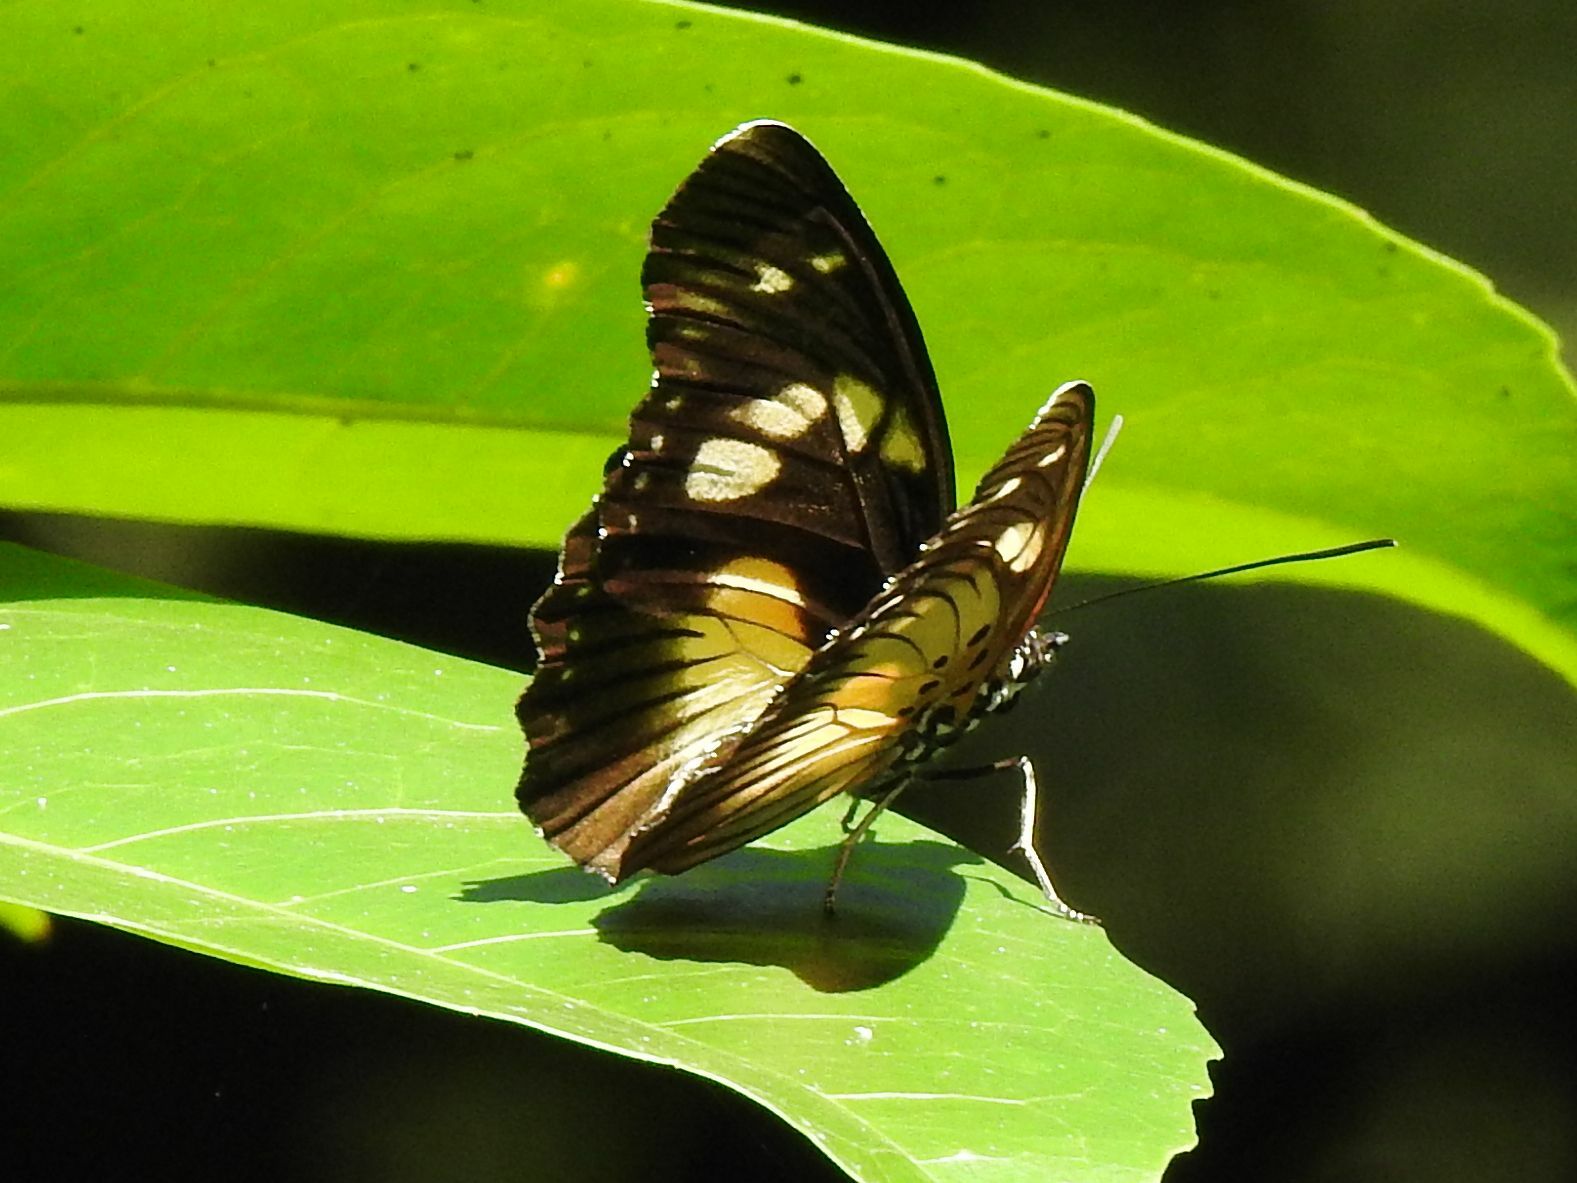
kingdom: Animalia
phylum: Arthropoda
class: Insecta
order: Lepidoptera
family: Nymphalidae
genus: Chloropoea
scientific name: Chloropoea lucretia
